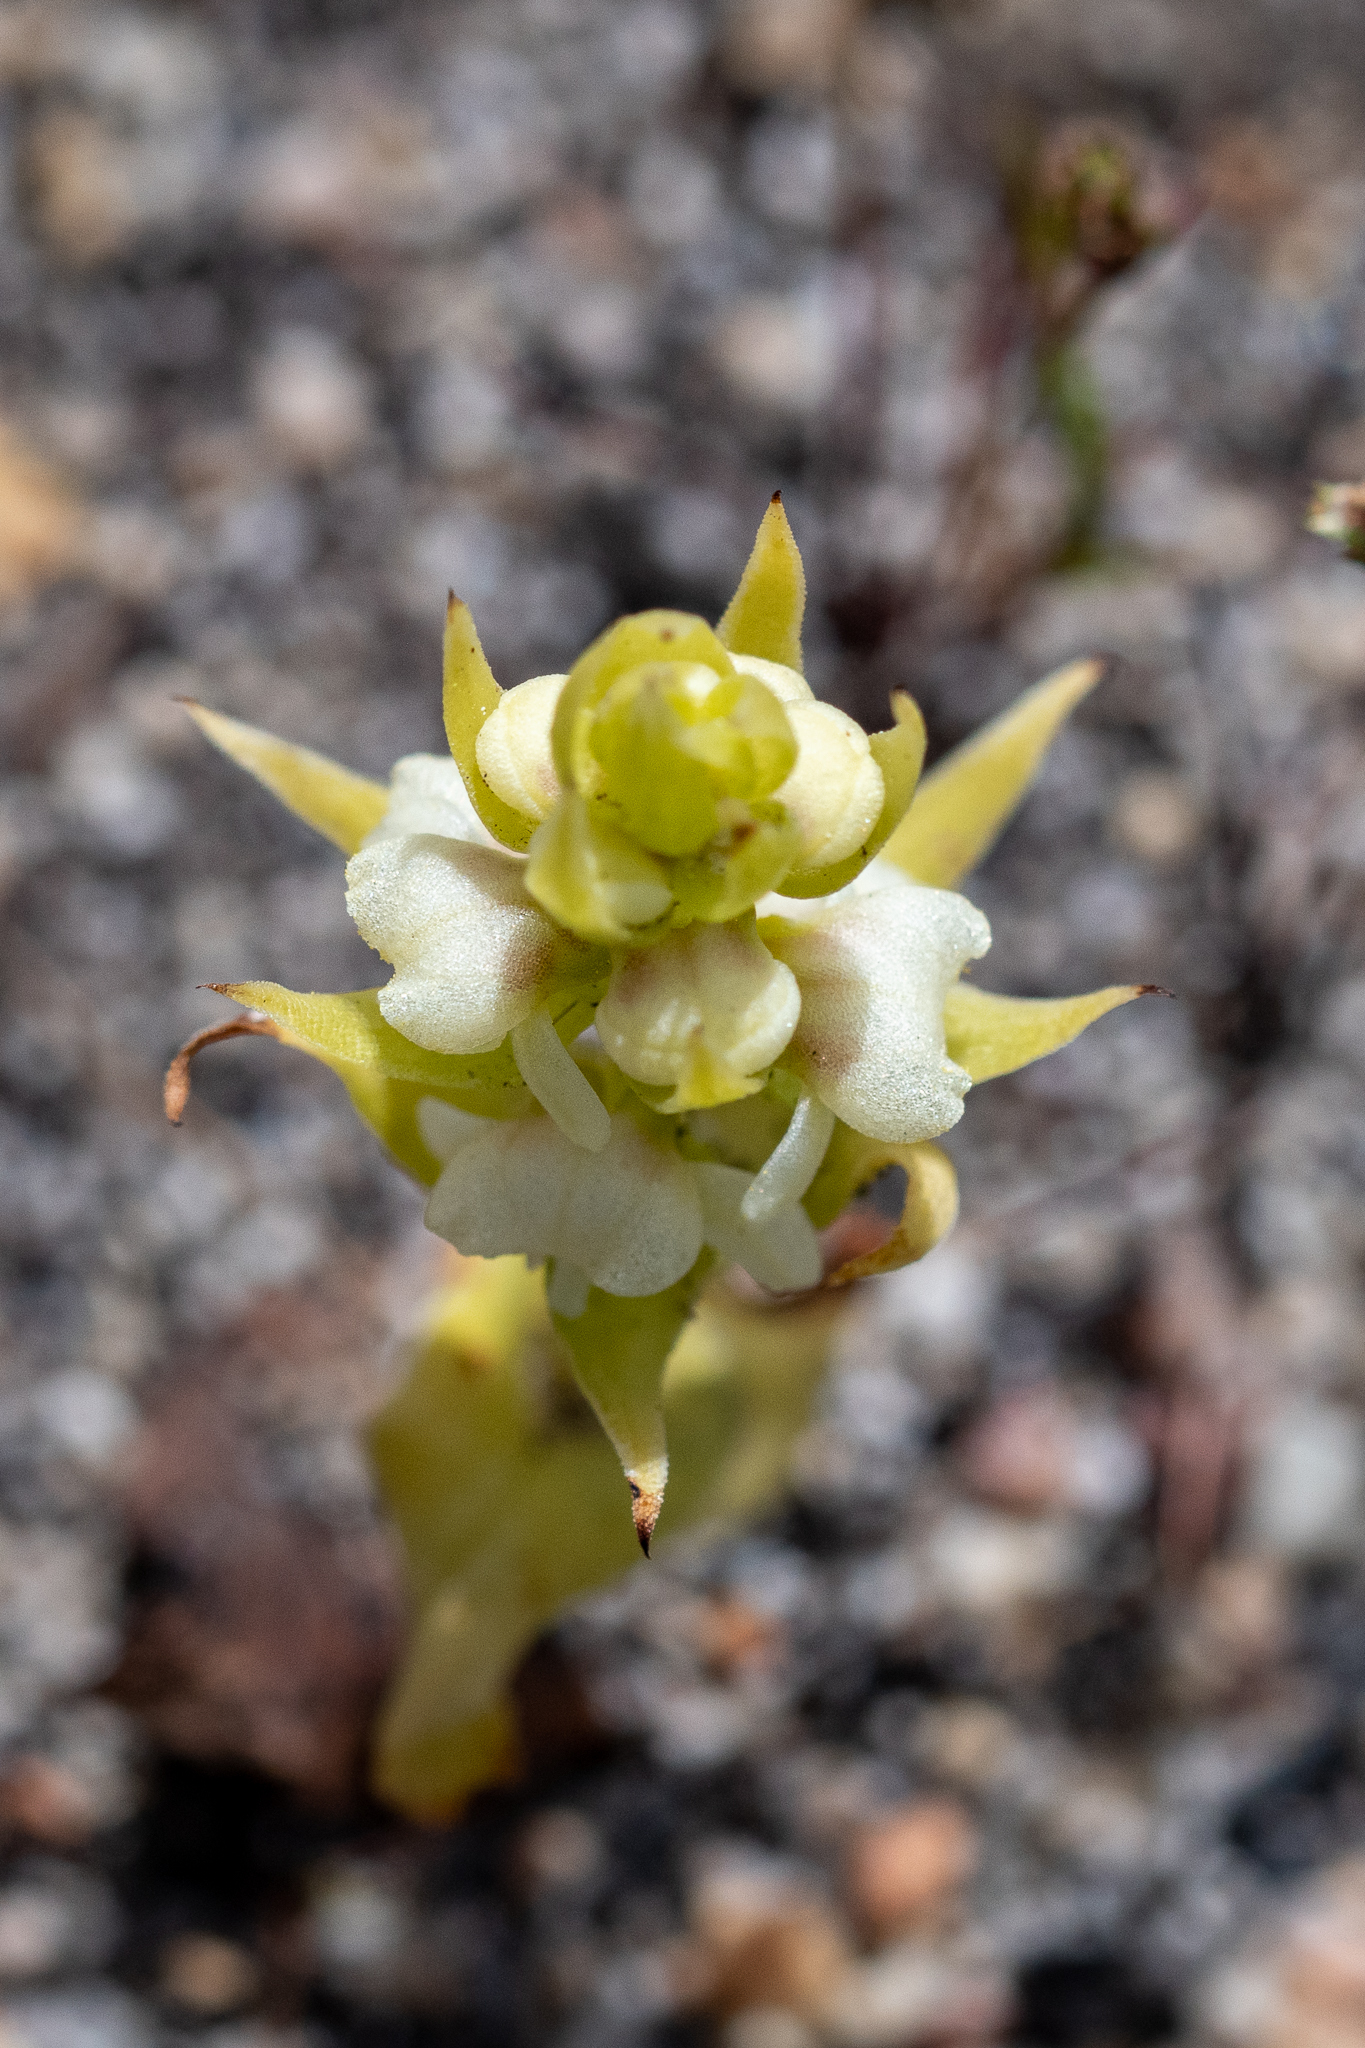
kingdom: Plantae
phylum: Tracheophyta
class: Liliopsida
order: Asparagales
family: Orchidaceae
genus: Satyrium
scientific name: Satyrium bicallosum
